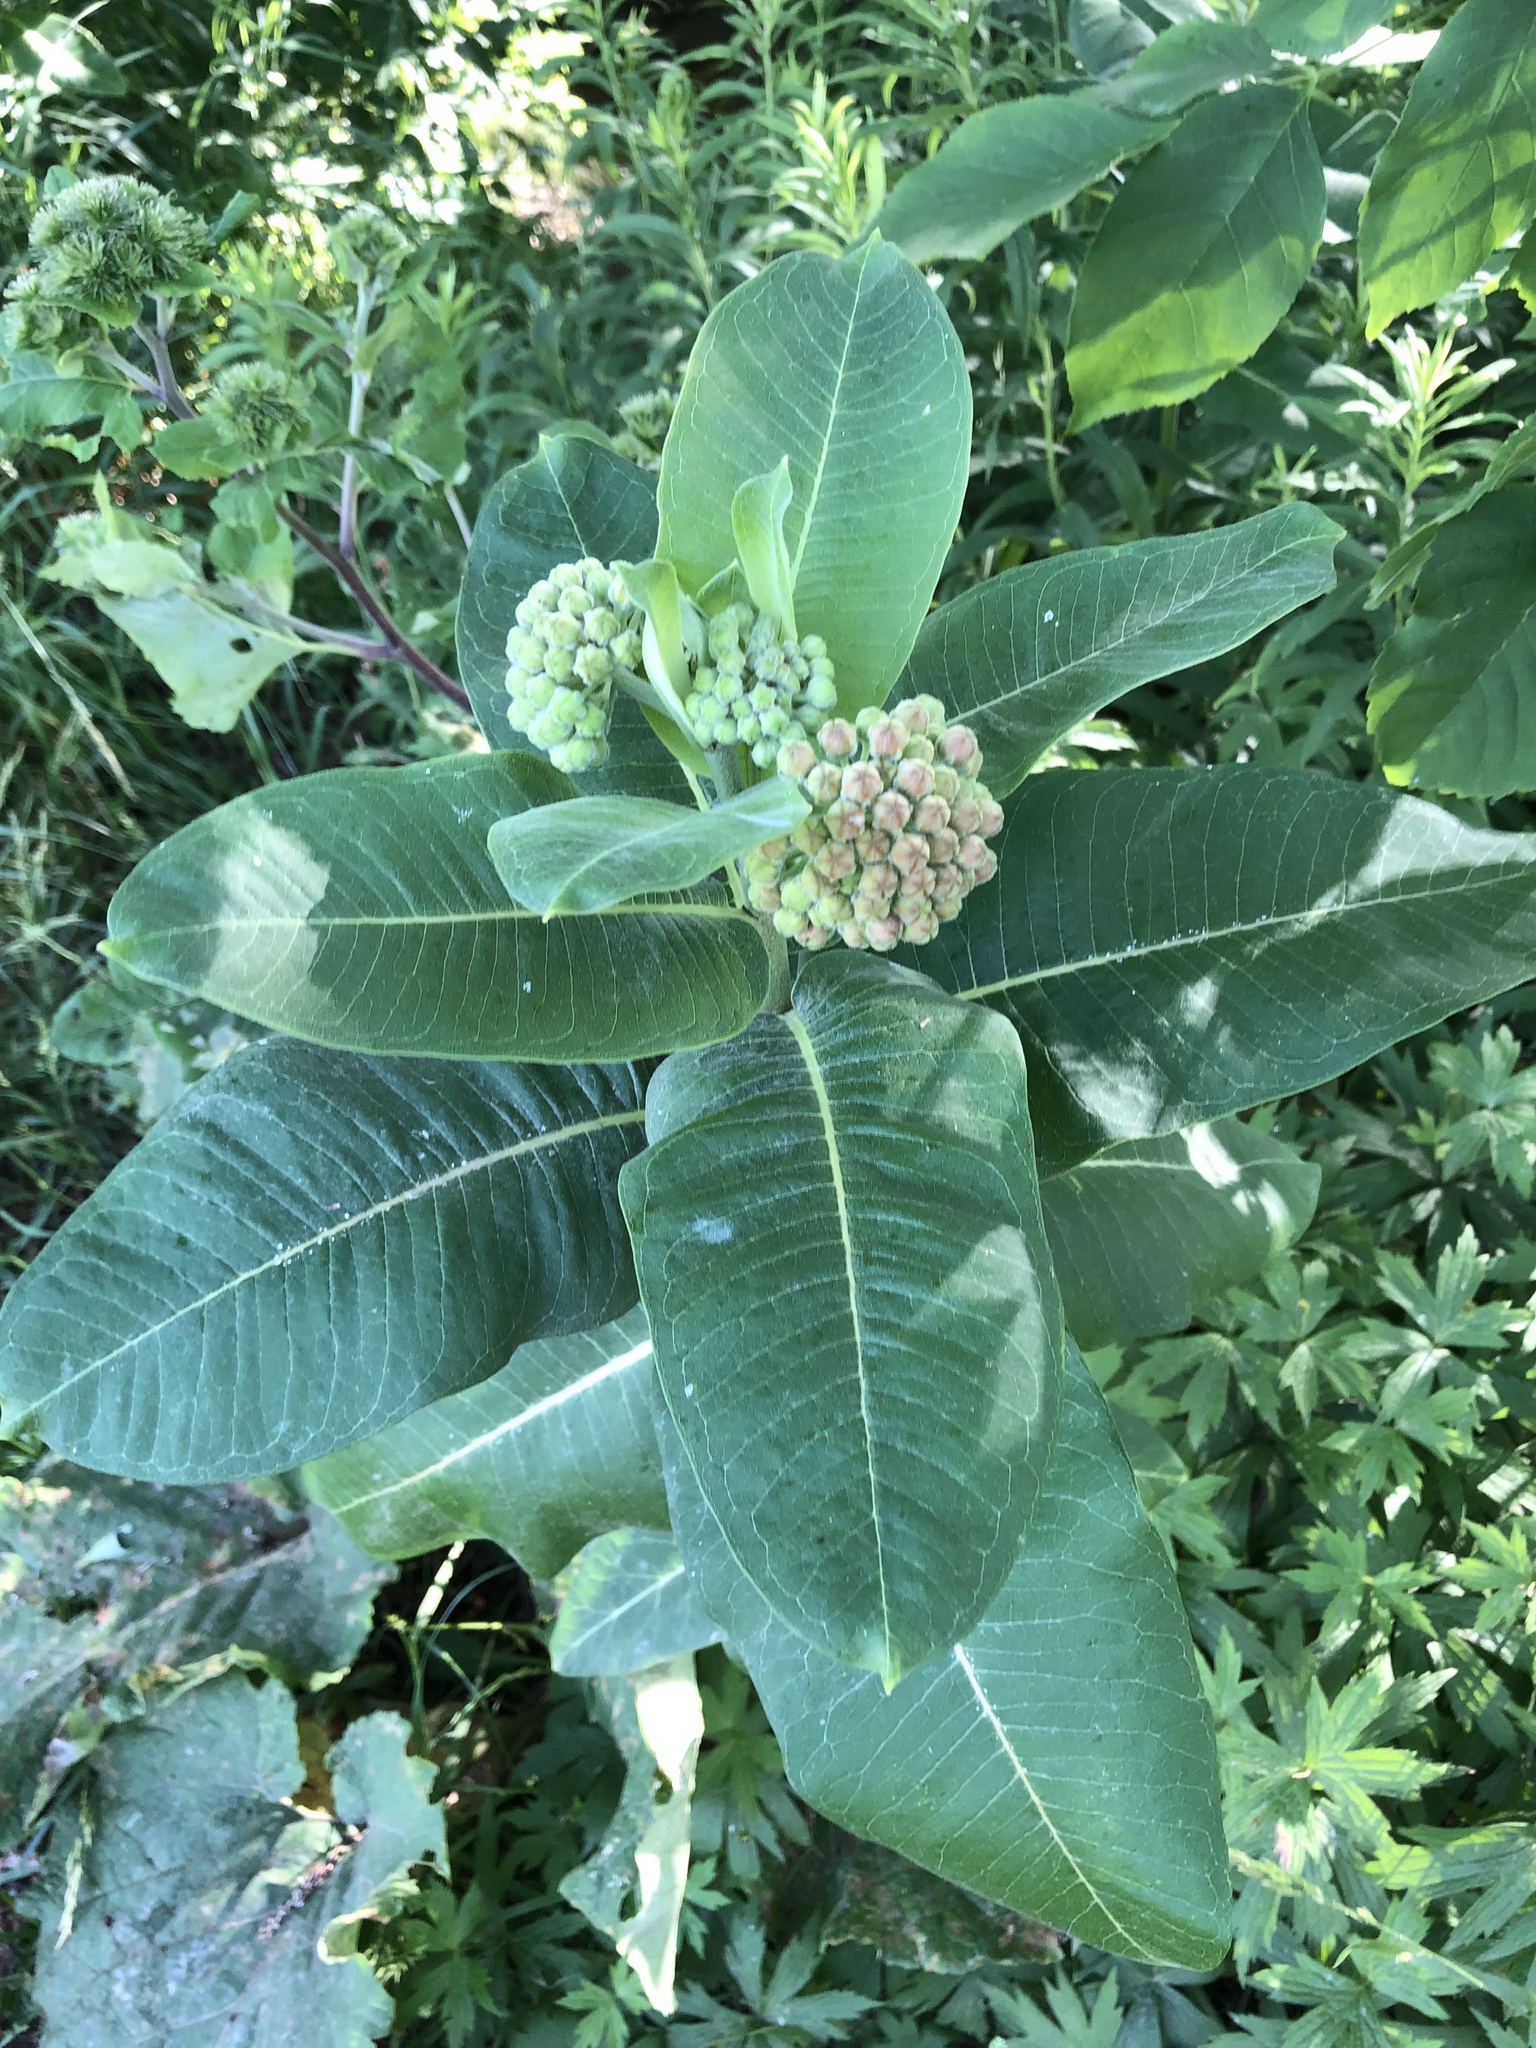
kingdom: Plantae
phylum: Tracheophyta
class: Magnoliopsida
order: Gentianales
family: Apocynaceae
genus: Asclepias
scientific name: Asclepias syriaca
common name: Common milkweed
